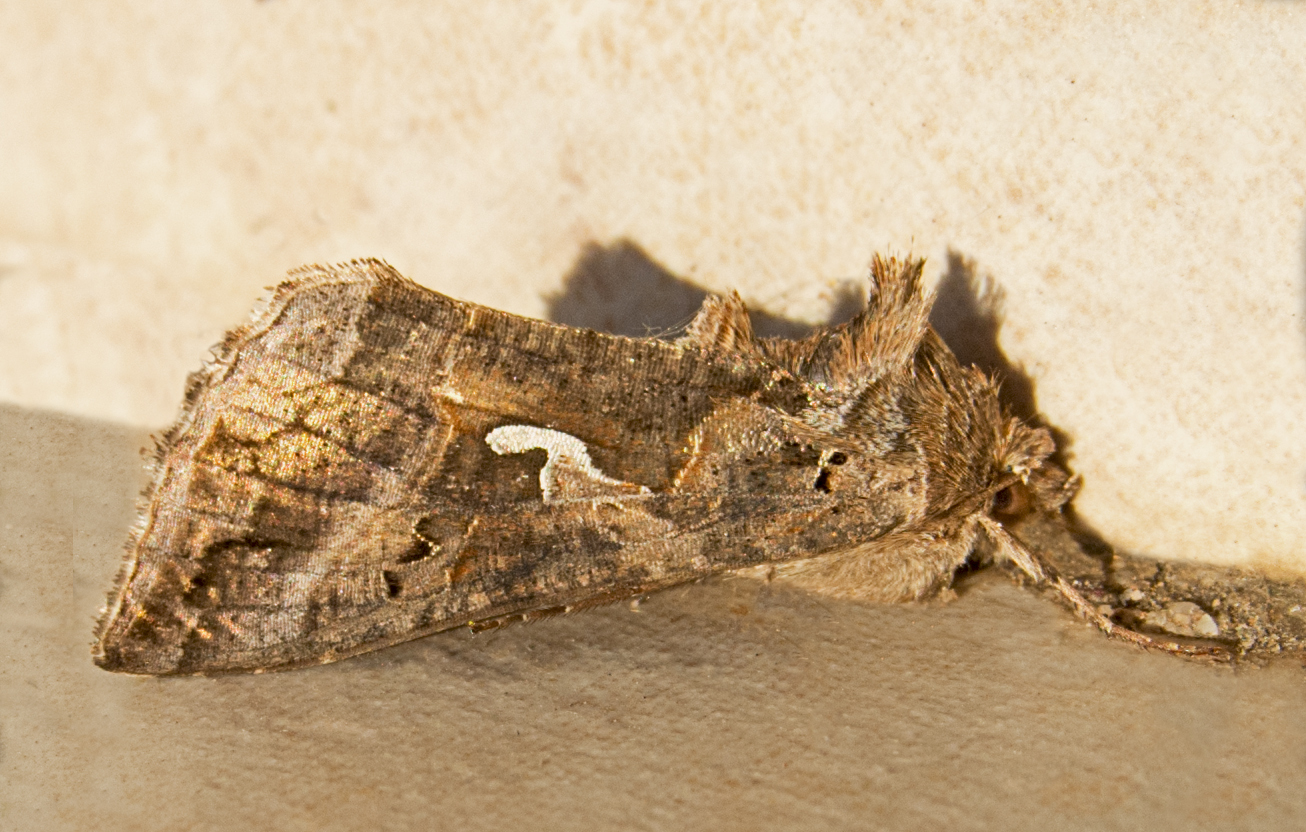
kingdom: Animalia
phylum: Arthropoda
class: Insecta
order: Lepidoptera
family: Noctuidae
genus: Autographa
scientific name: Autographa gamma
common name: Silver y
